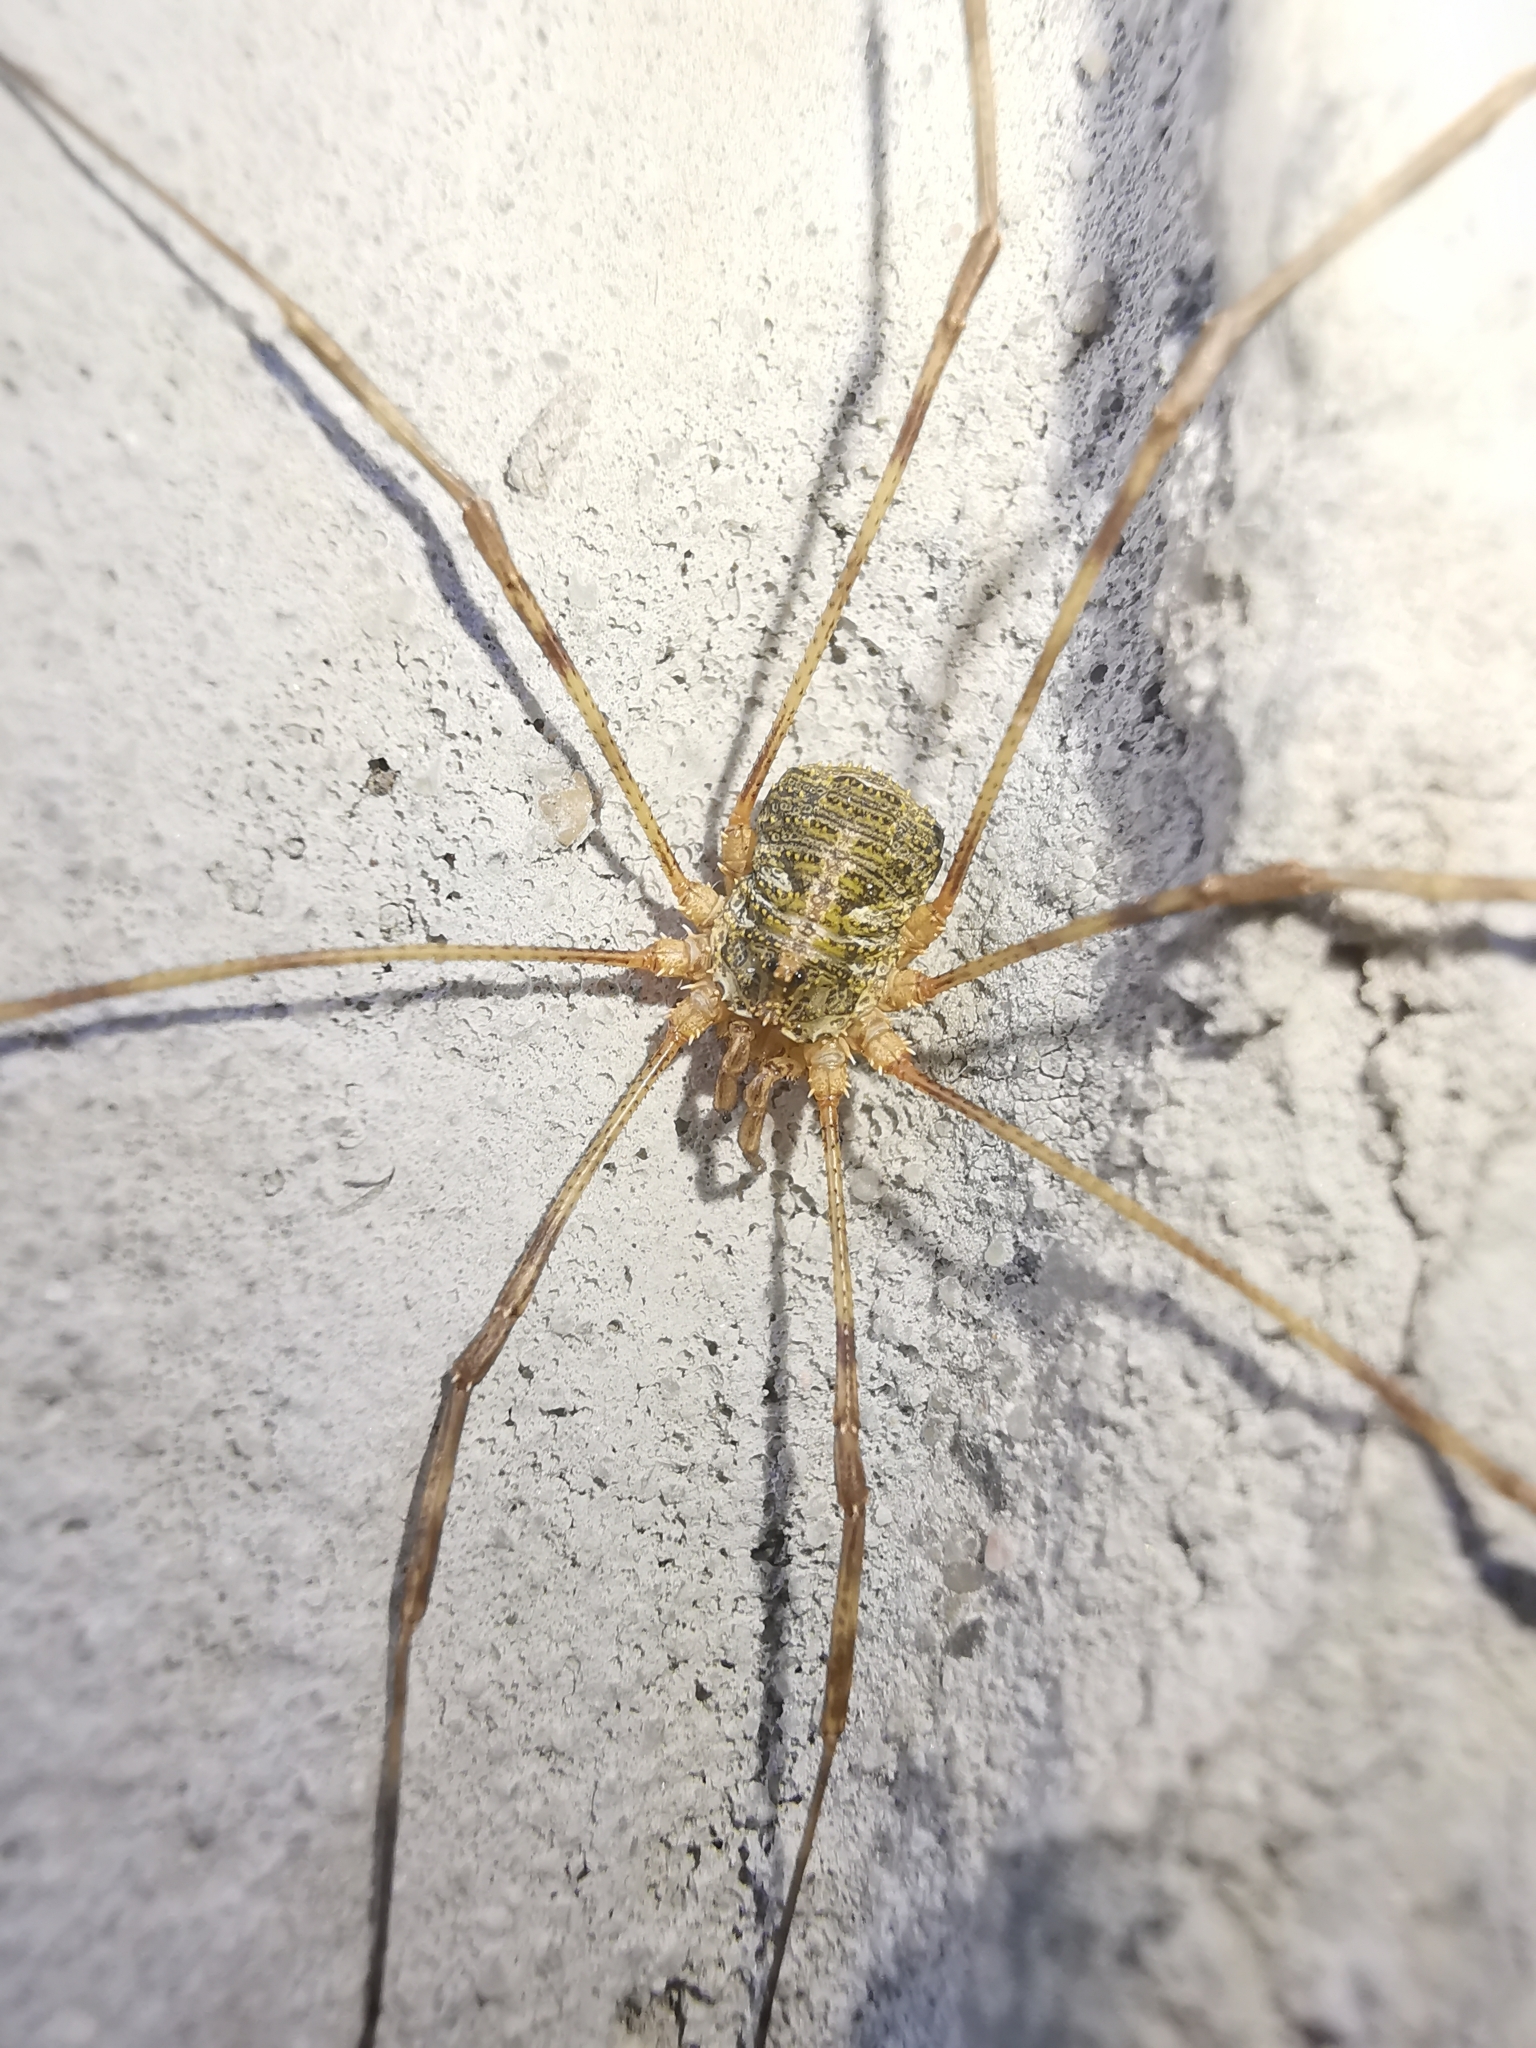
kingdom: Animalia
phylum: Arthropoda
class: Arachnida
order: Opiliones
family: Phalangiidae
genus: Lacinius
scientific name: Lacinius dentiger
